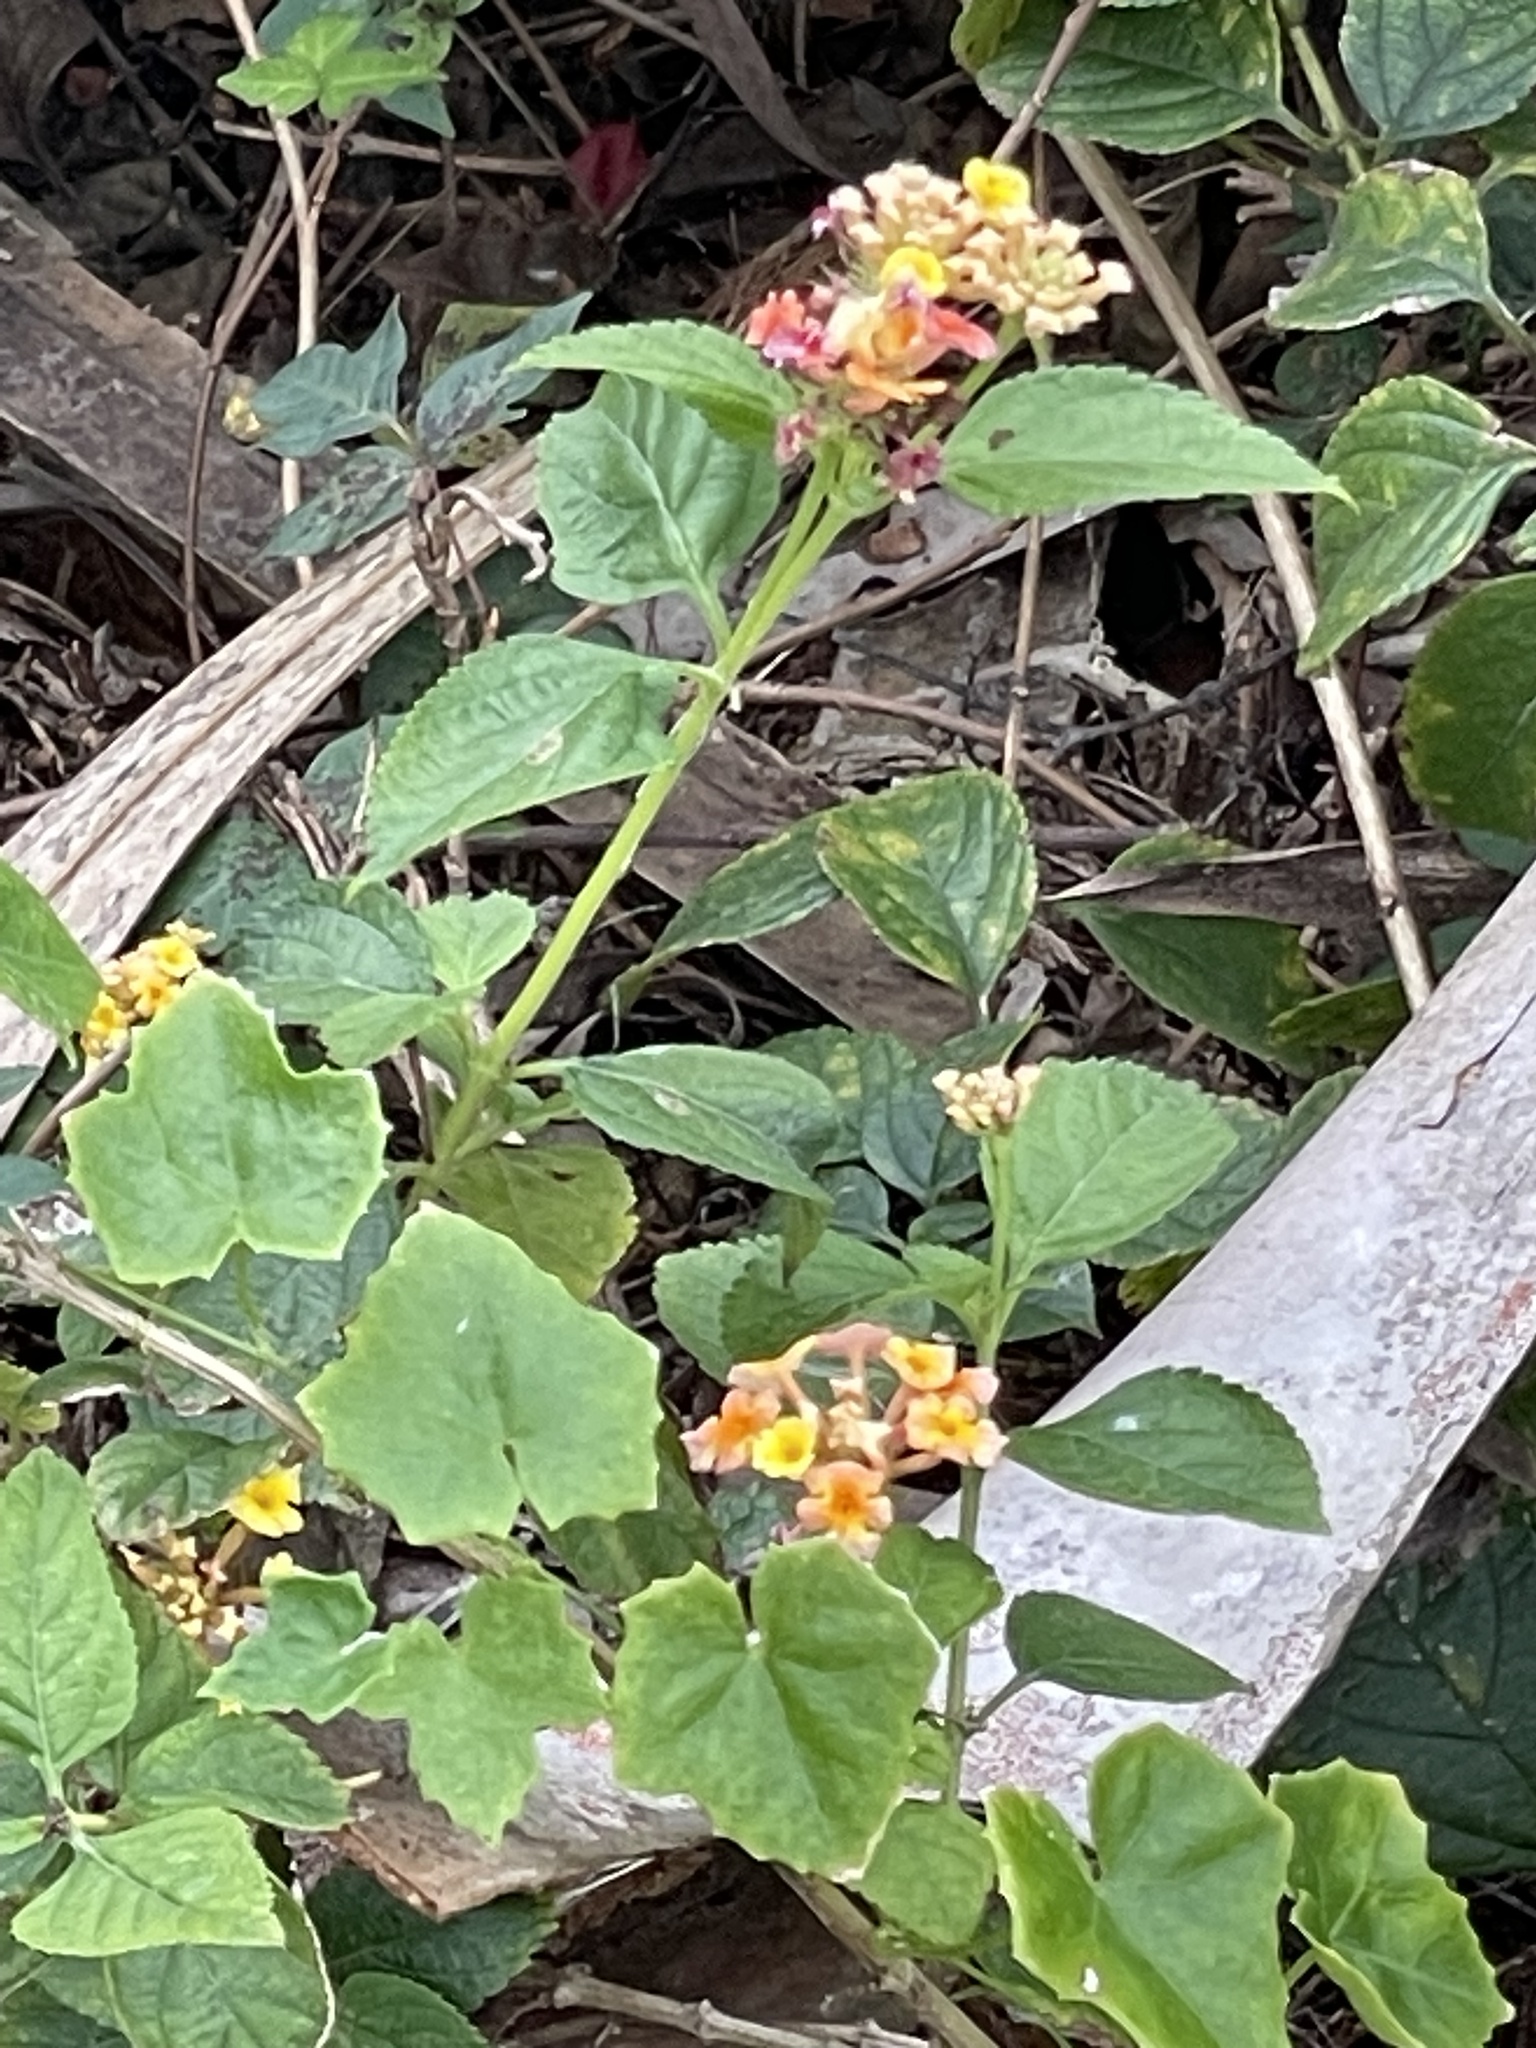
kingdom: Plantae
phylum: Tracheophyta
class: Magnoliopsida
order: Lamiales
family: Verbenaceae
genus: Lantana
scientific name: Lantana strigocamara
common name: Lantana
